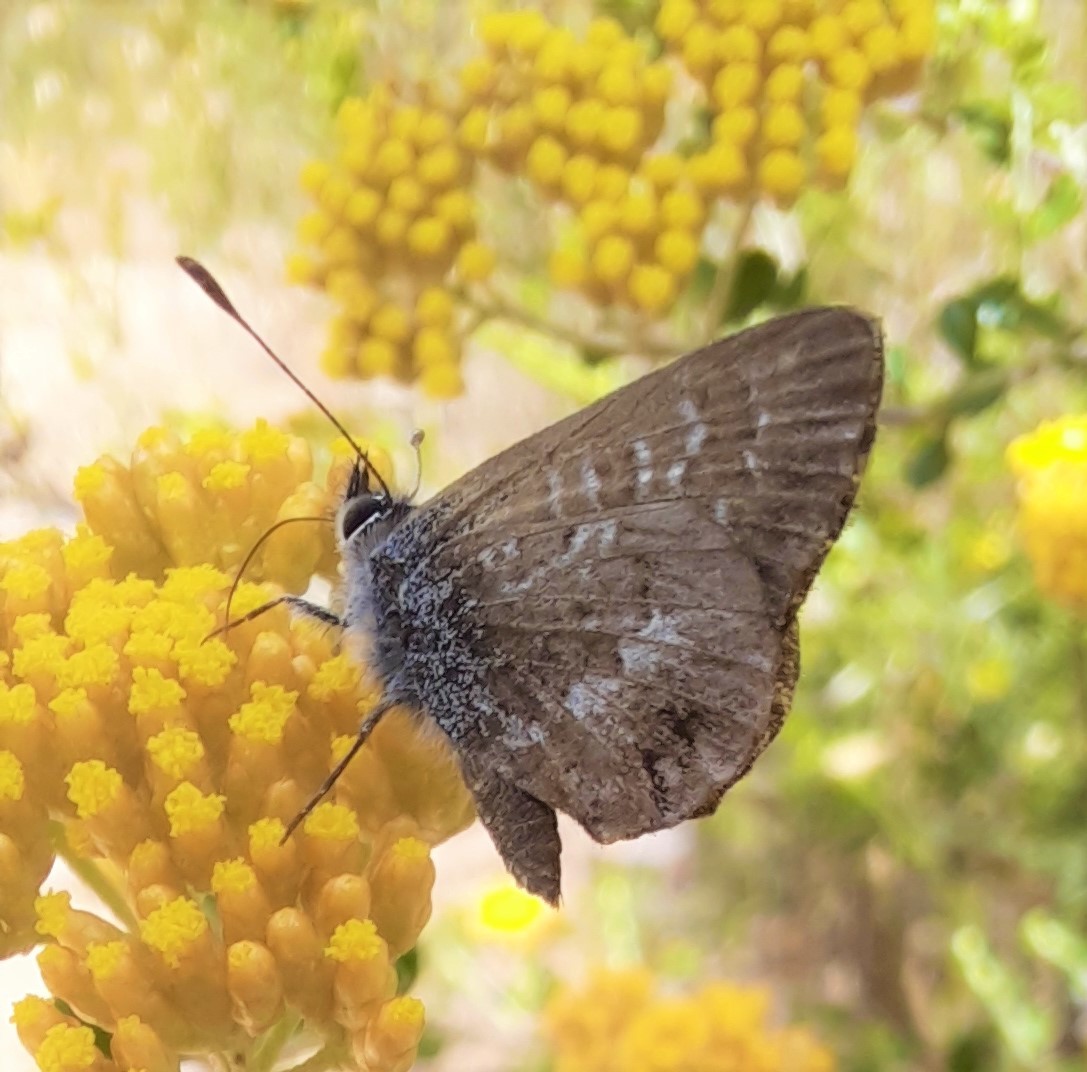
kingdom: Animalia
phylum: Arthropoda
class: Insecta
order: Lepidoptera
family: Lycaenidae
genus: Neolucia
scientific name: Neolucia agricola
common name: Fringed blue
